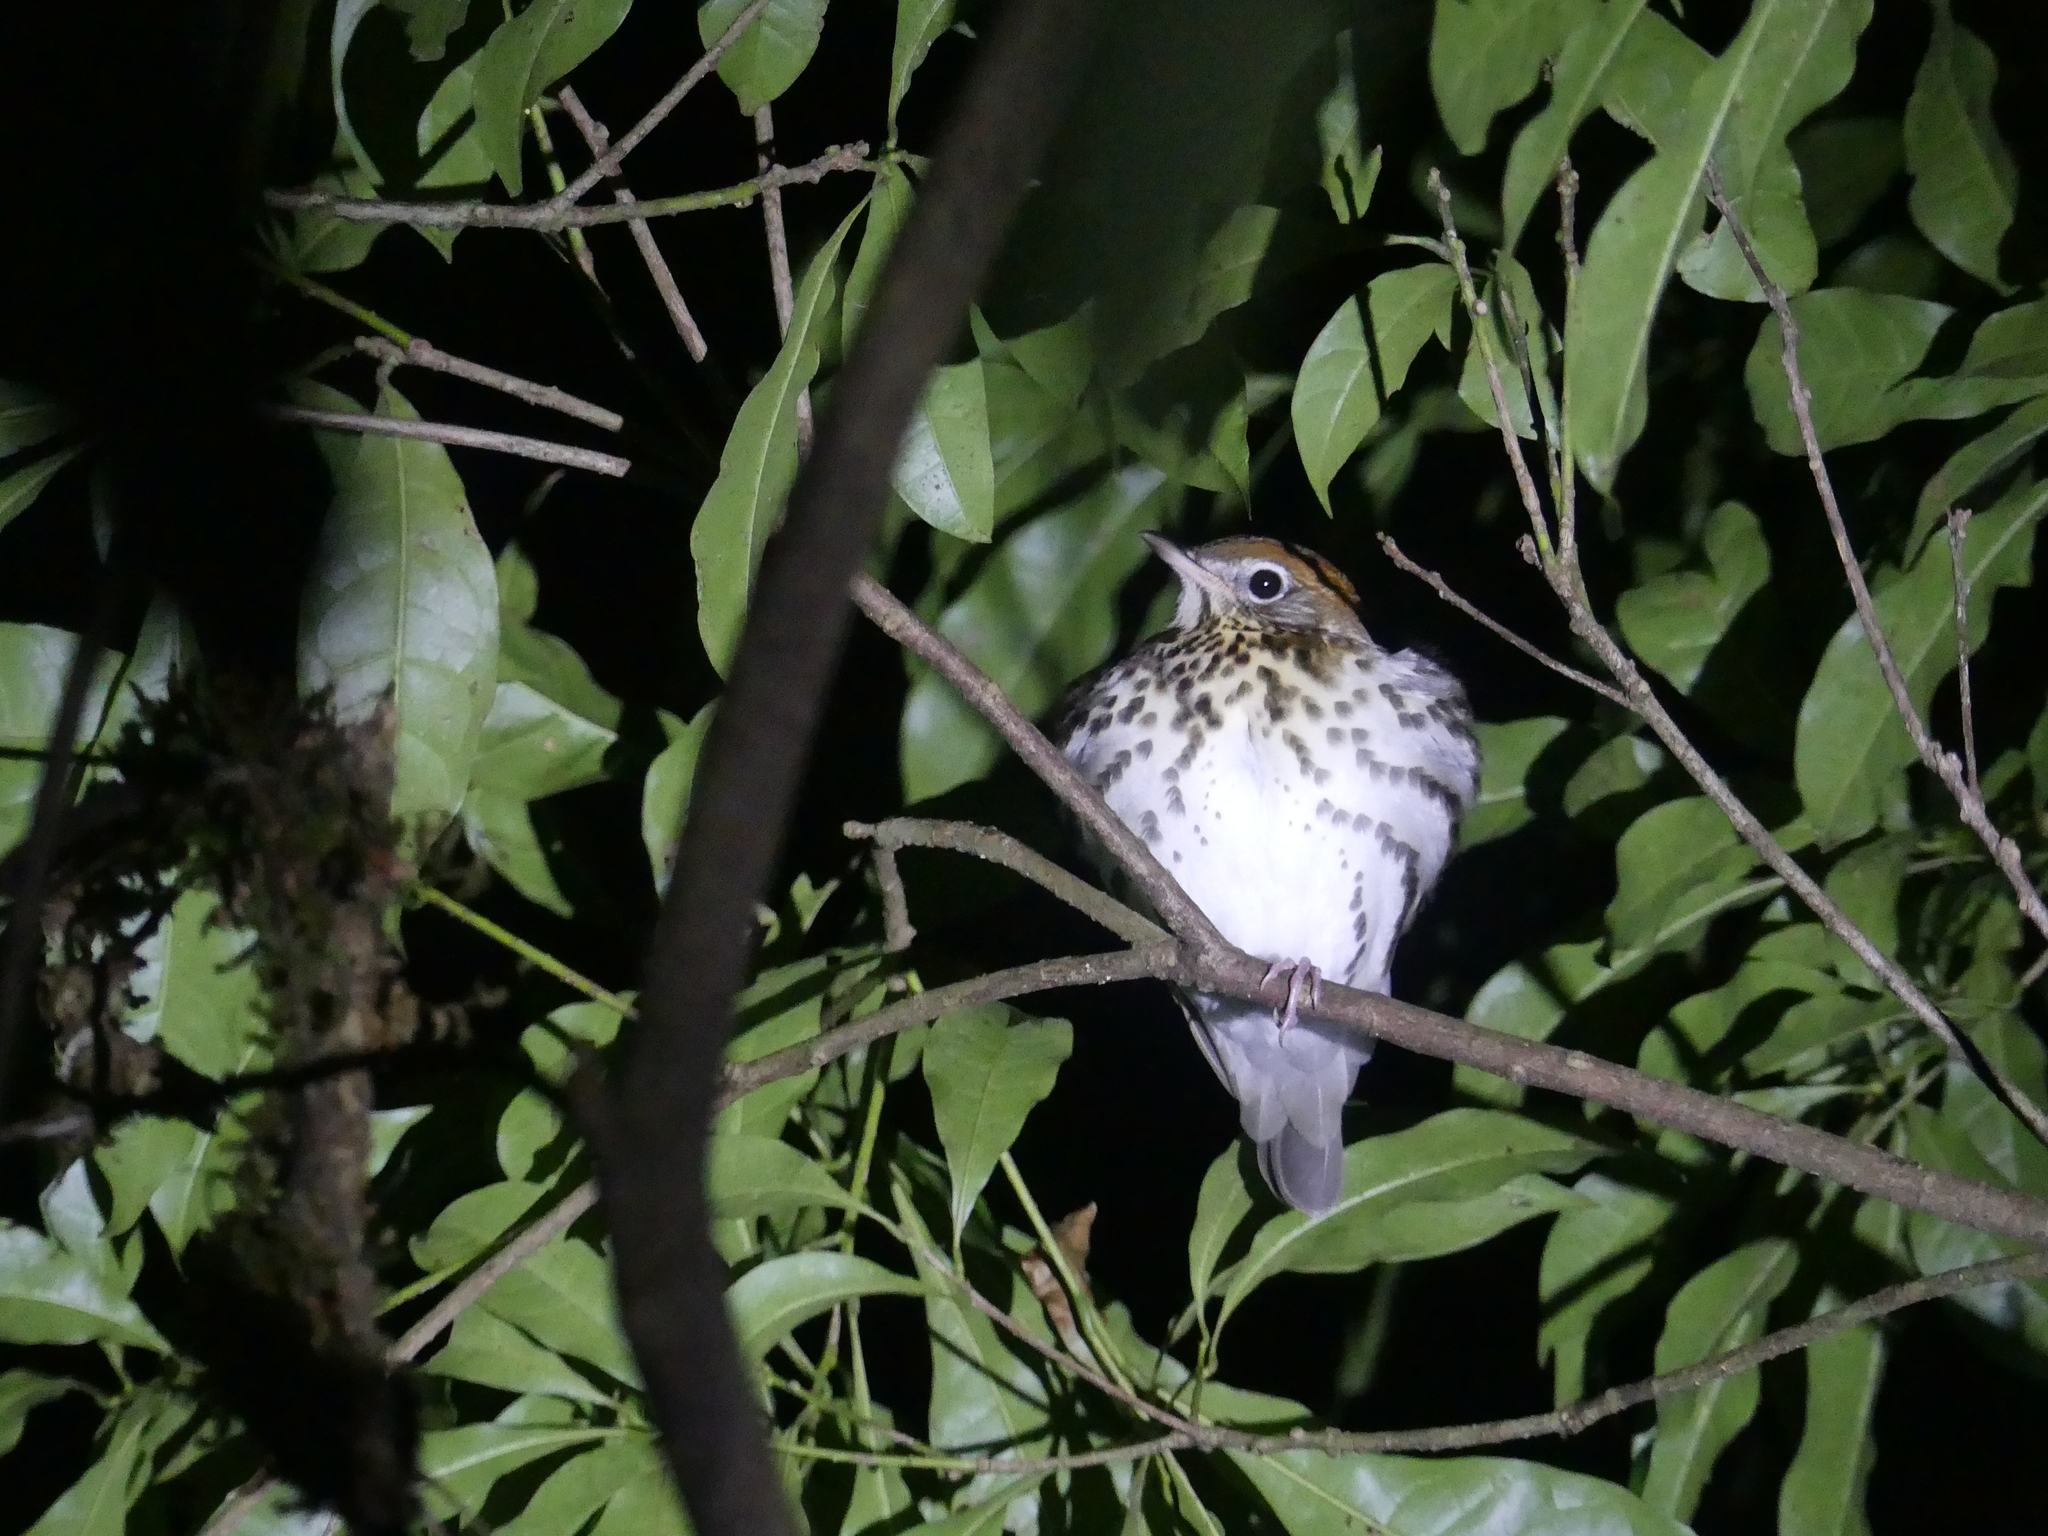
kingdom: Animalia
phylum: Chordata
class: Aves
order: Passeriformes
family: Turdidae
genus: Hylocichla
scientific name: Hylocichla mustelina
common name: Wood thrush
